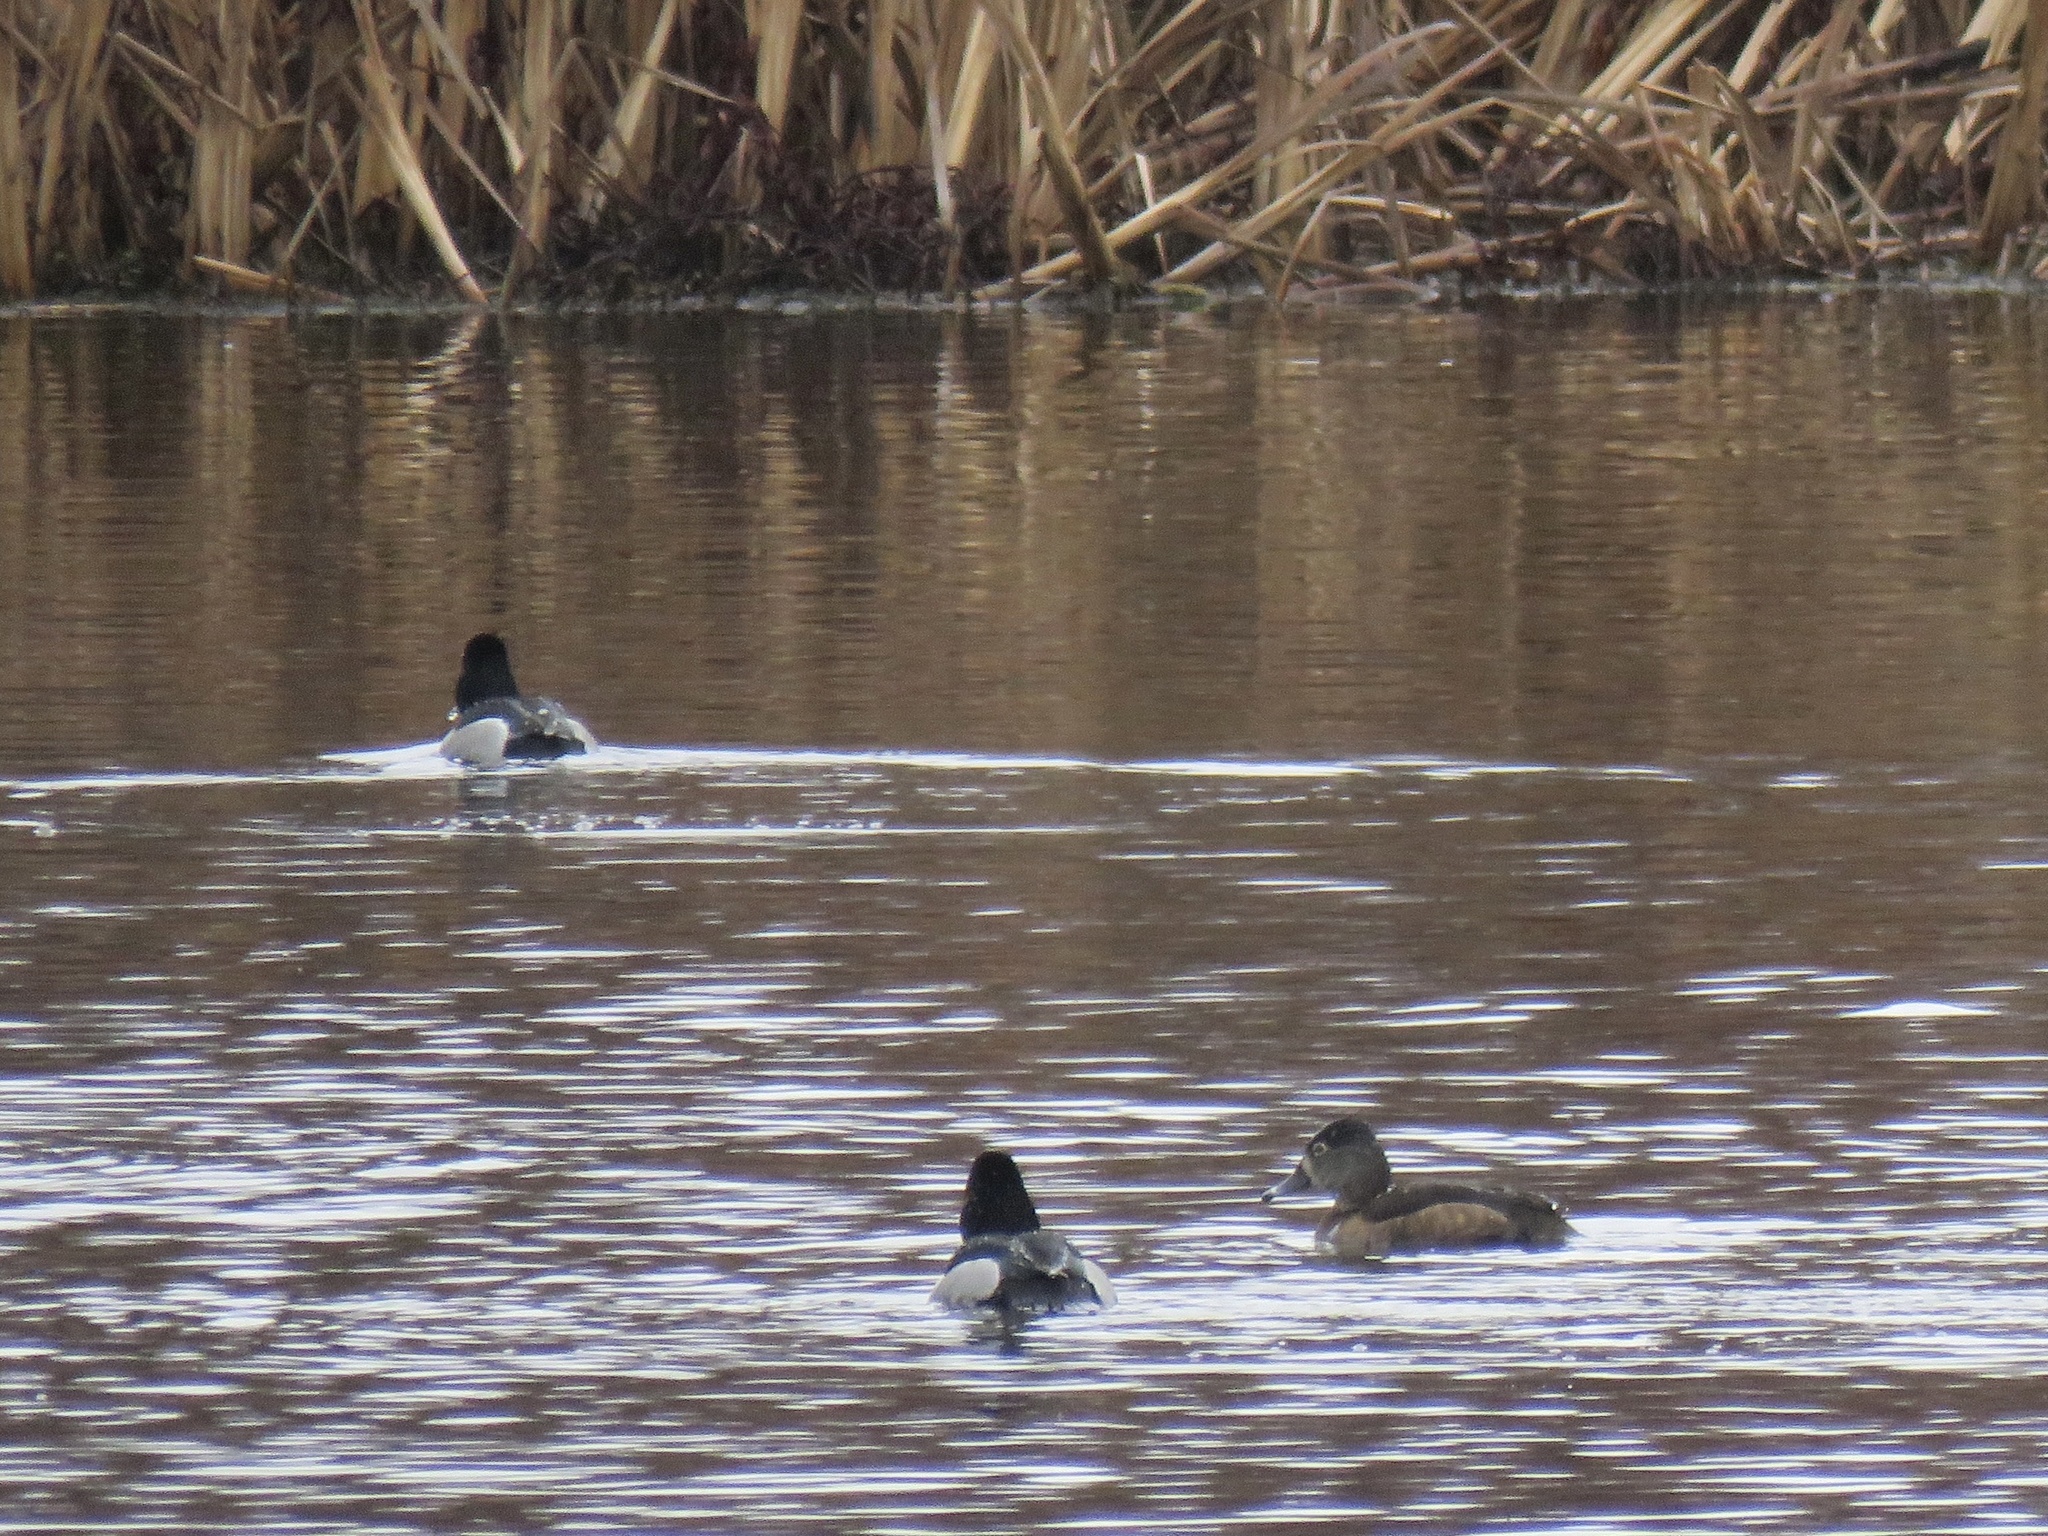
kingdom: Animalia
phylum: Chordata
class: Aves
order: Anseriformes
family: Anatidae
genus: Aythya
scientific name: Aythya collaris
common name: Ring-necked duck
